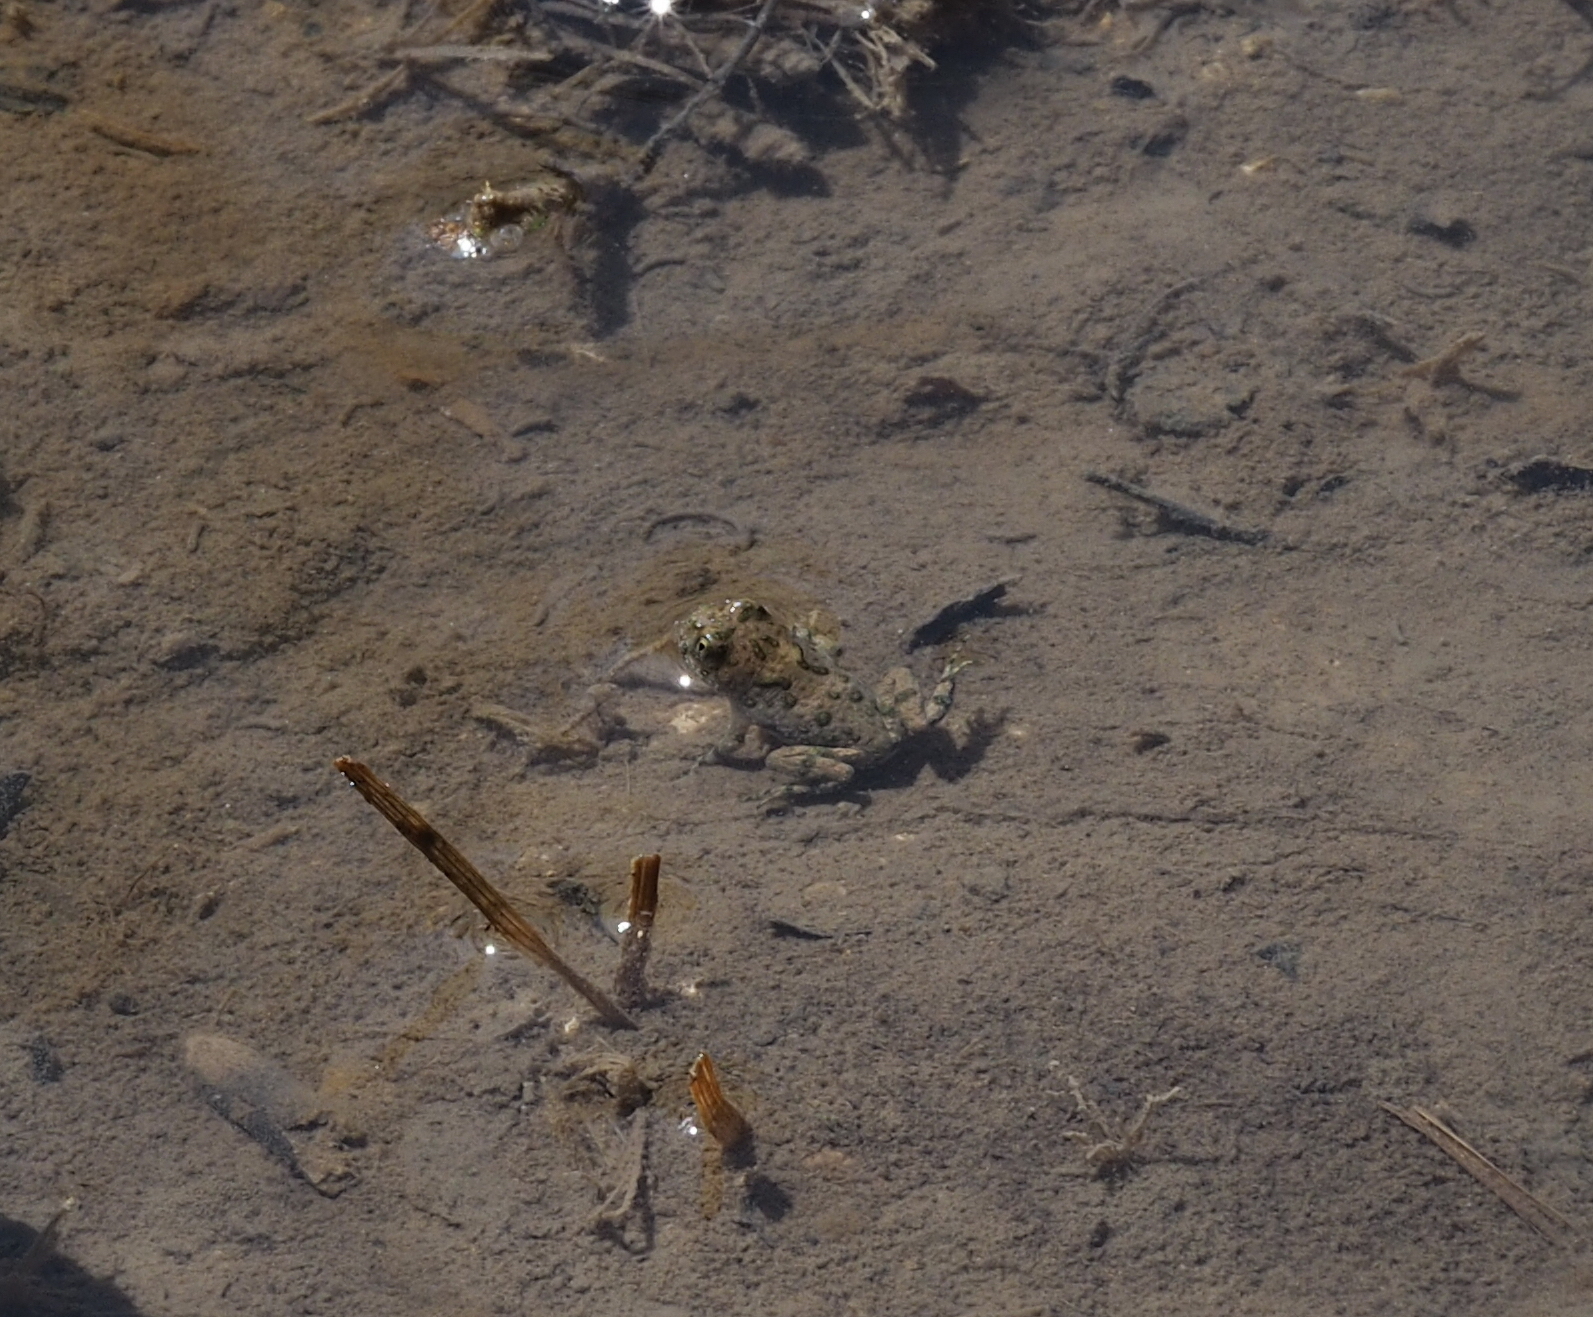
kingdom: Animalia
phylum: Chordata
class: Amphibia
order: Anura
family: Bombinatoridae
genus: Bombina
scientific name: Bombina variegata
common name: Yellow-bellied toad
